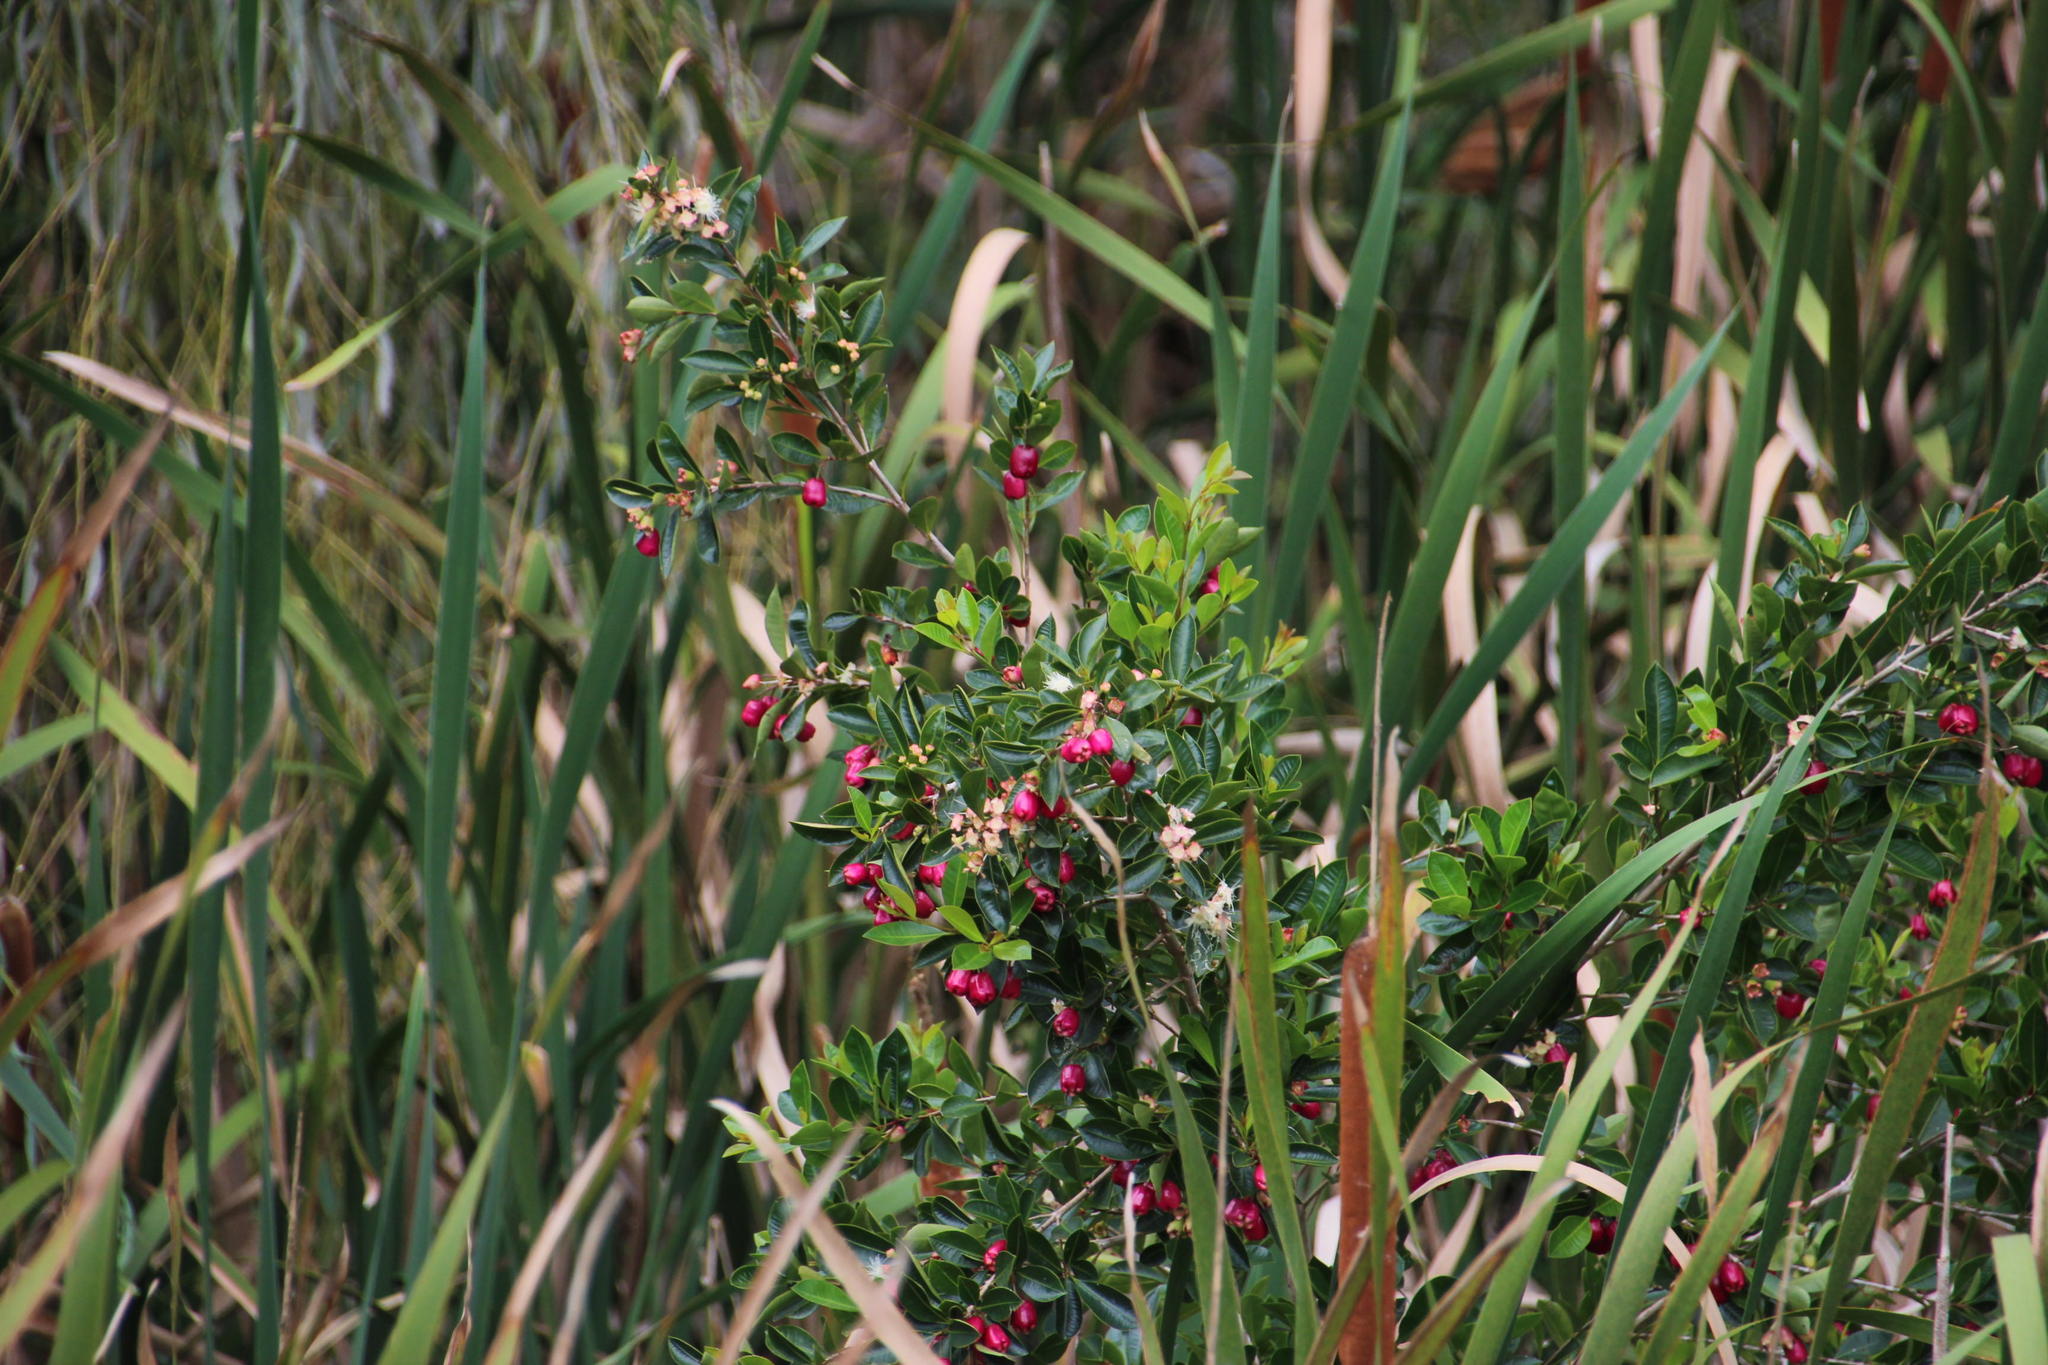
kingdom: Plantae
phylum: Tracheophyta
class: Magnoliopsida
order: Myrtales
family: Myrtaceae
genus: Syzygium
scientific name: Syzygium australe
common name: Australian brush-cherry
